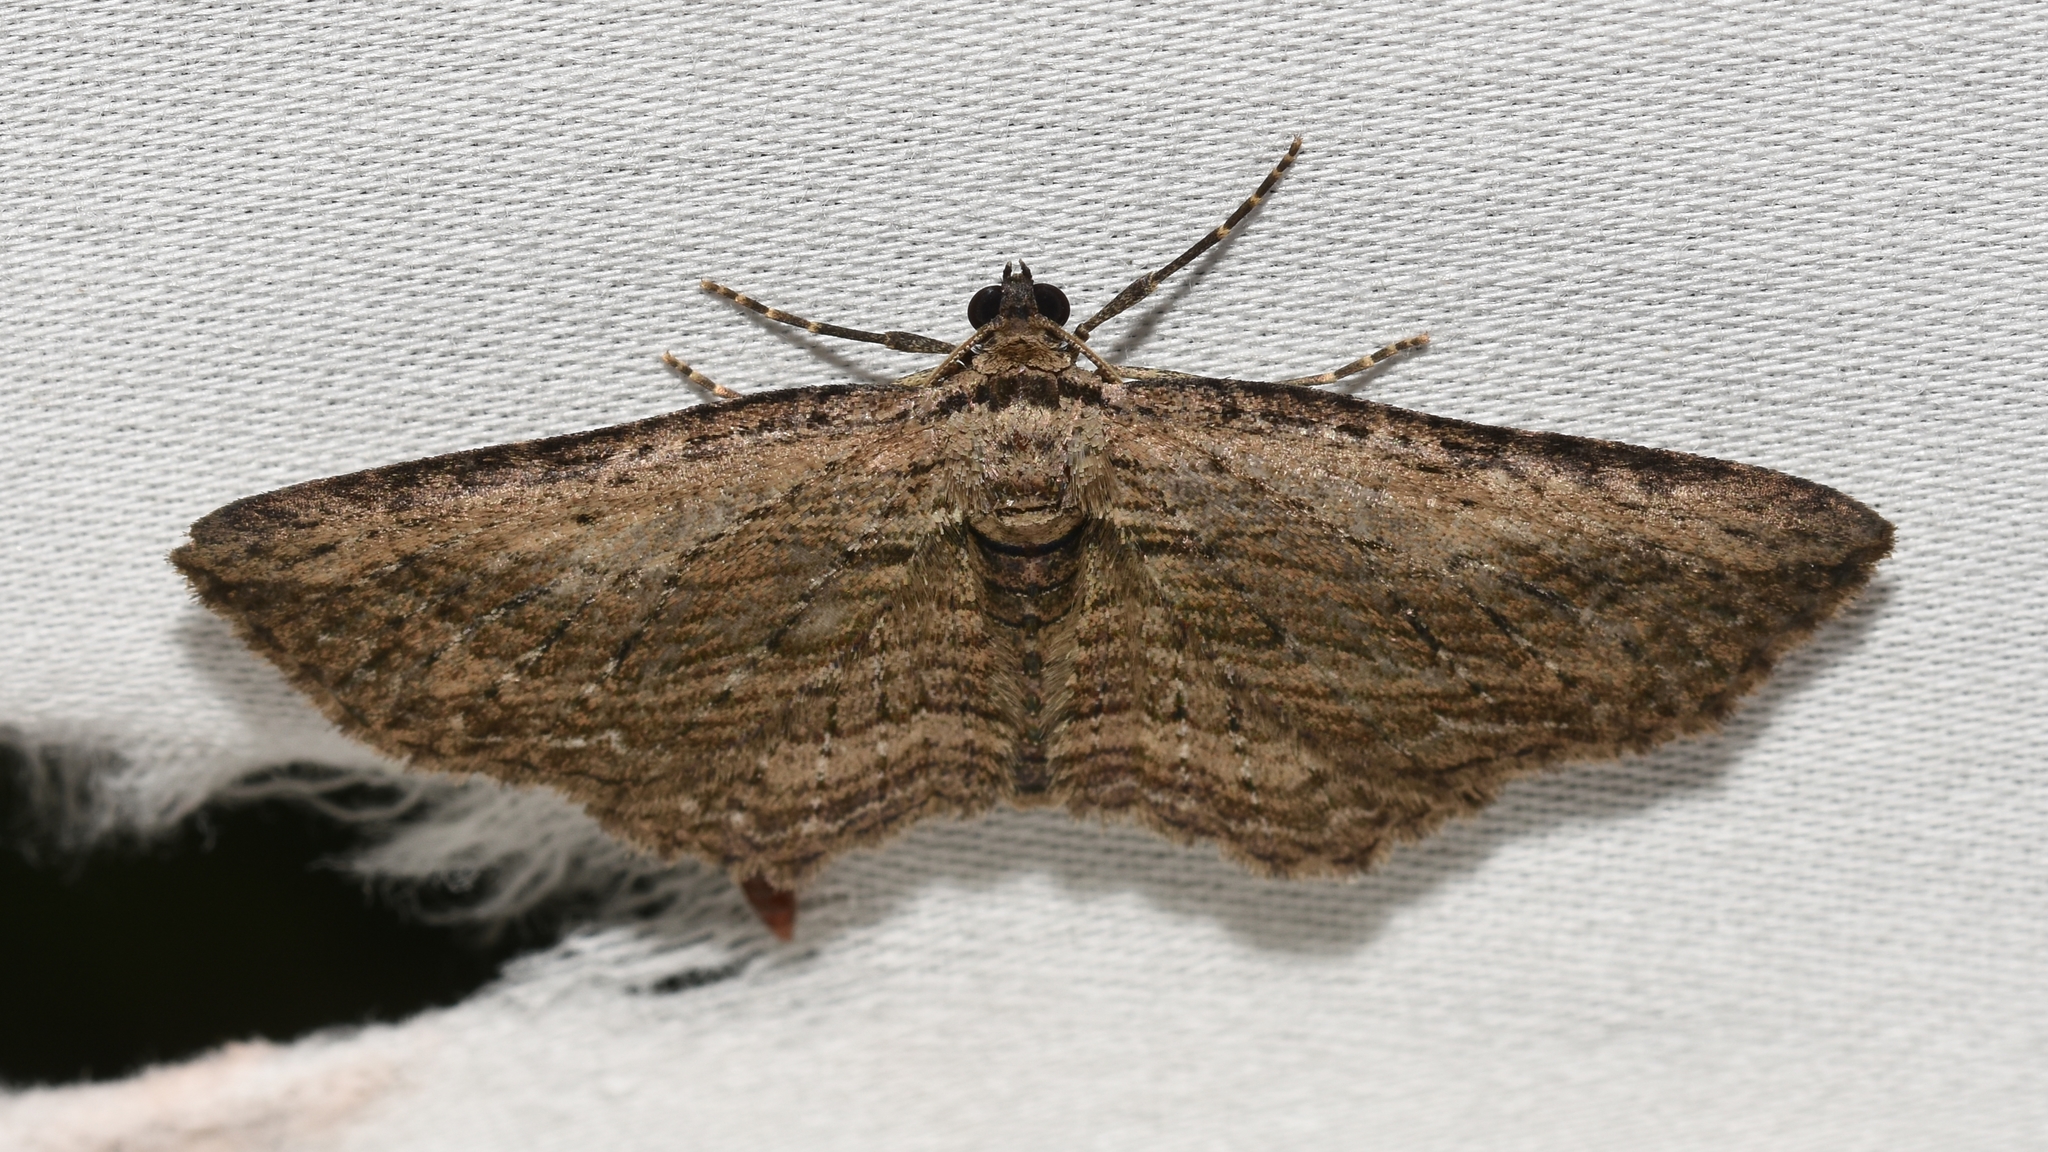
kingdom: Animalia
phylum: Arthropoda
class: Insecta
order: Lepidoptera
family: Geometridae
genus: Horisme
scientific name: Horisme intestinata
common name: Brown bark carpet
